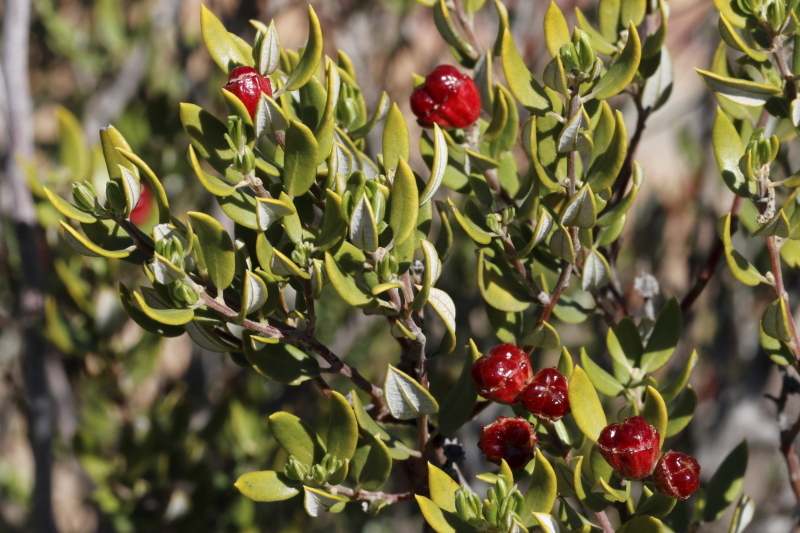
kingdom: Plantae
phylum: Tracheophyta
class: Magnoliopsida
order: Rosales
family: Rhamnaceae
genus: Phylica
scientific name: Phylica oleifolia
